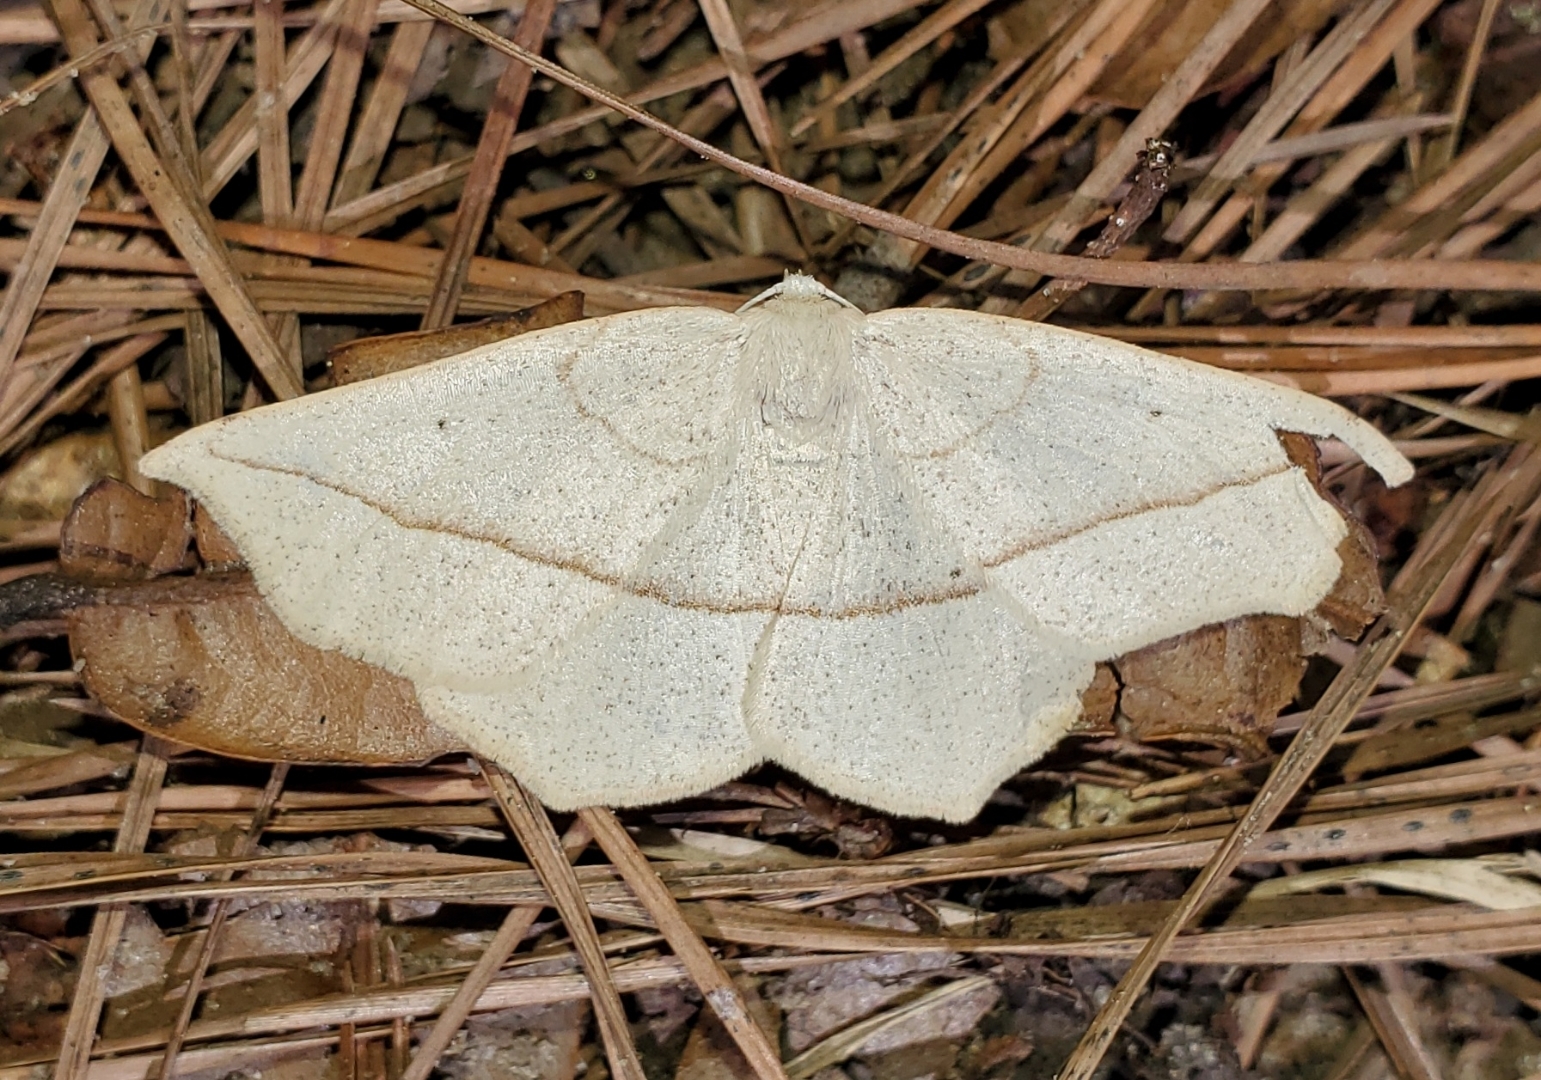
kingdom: Animalia
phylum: Arthropoda
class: Insecta
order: Lepidoptera
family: Geometridae
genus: Eusarca
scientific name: Eusarca confusaria
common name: Confused eusarca
